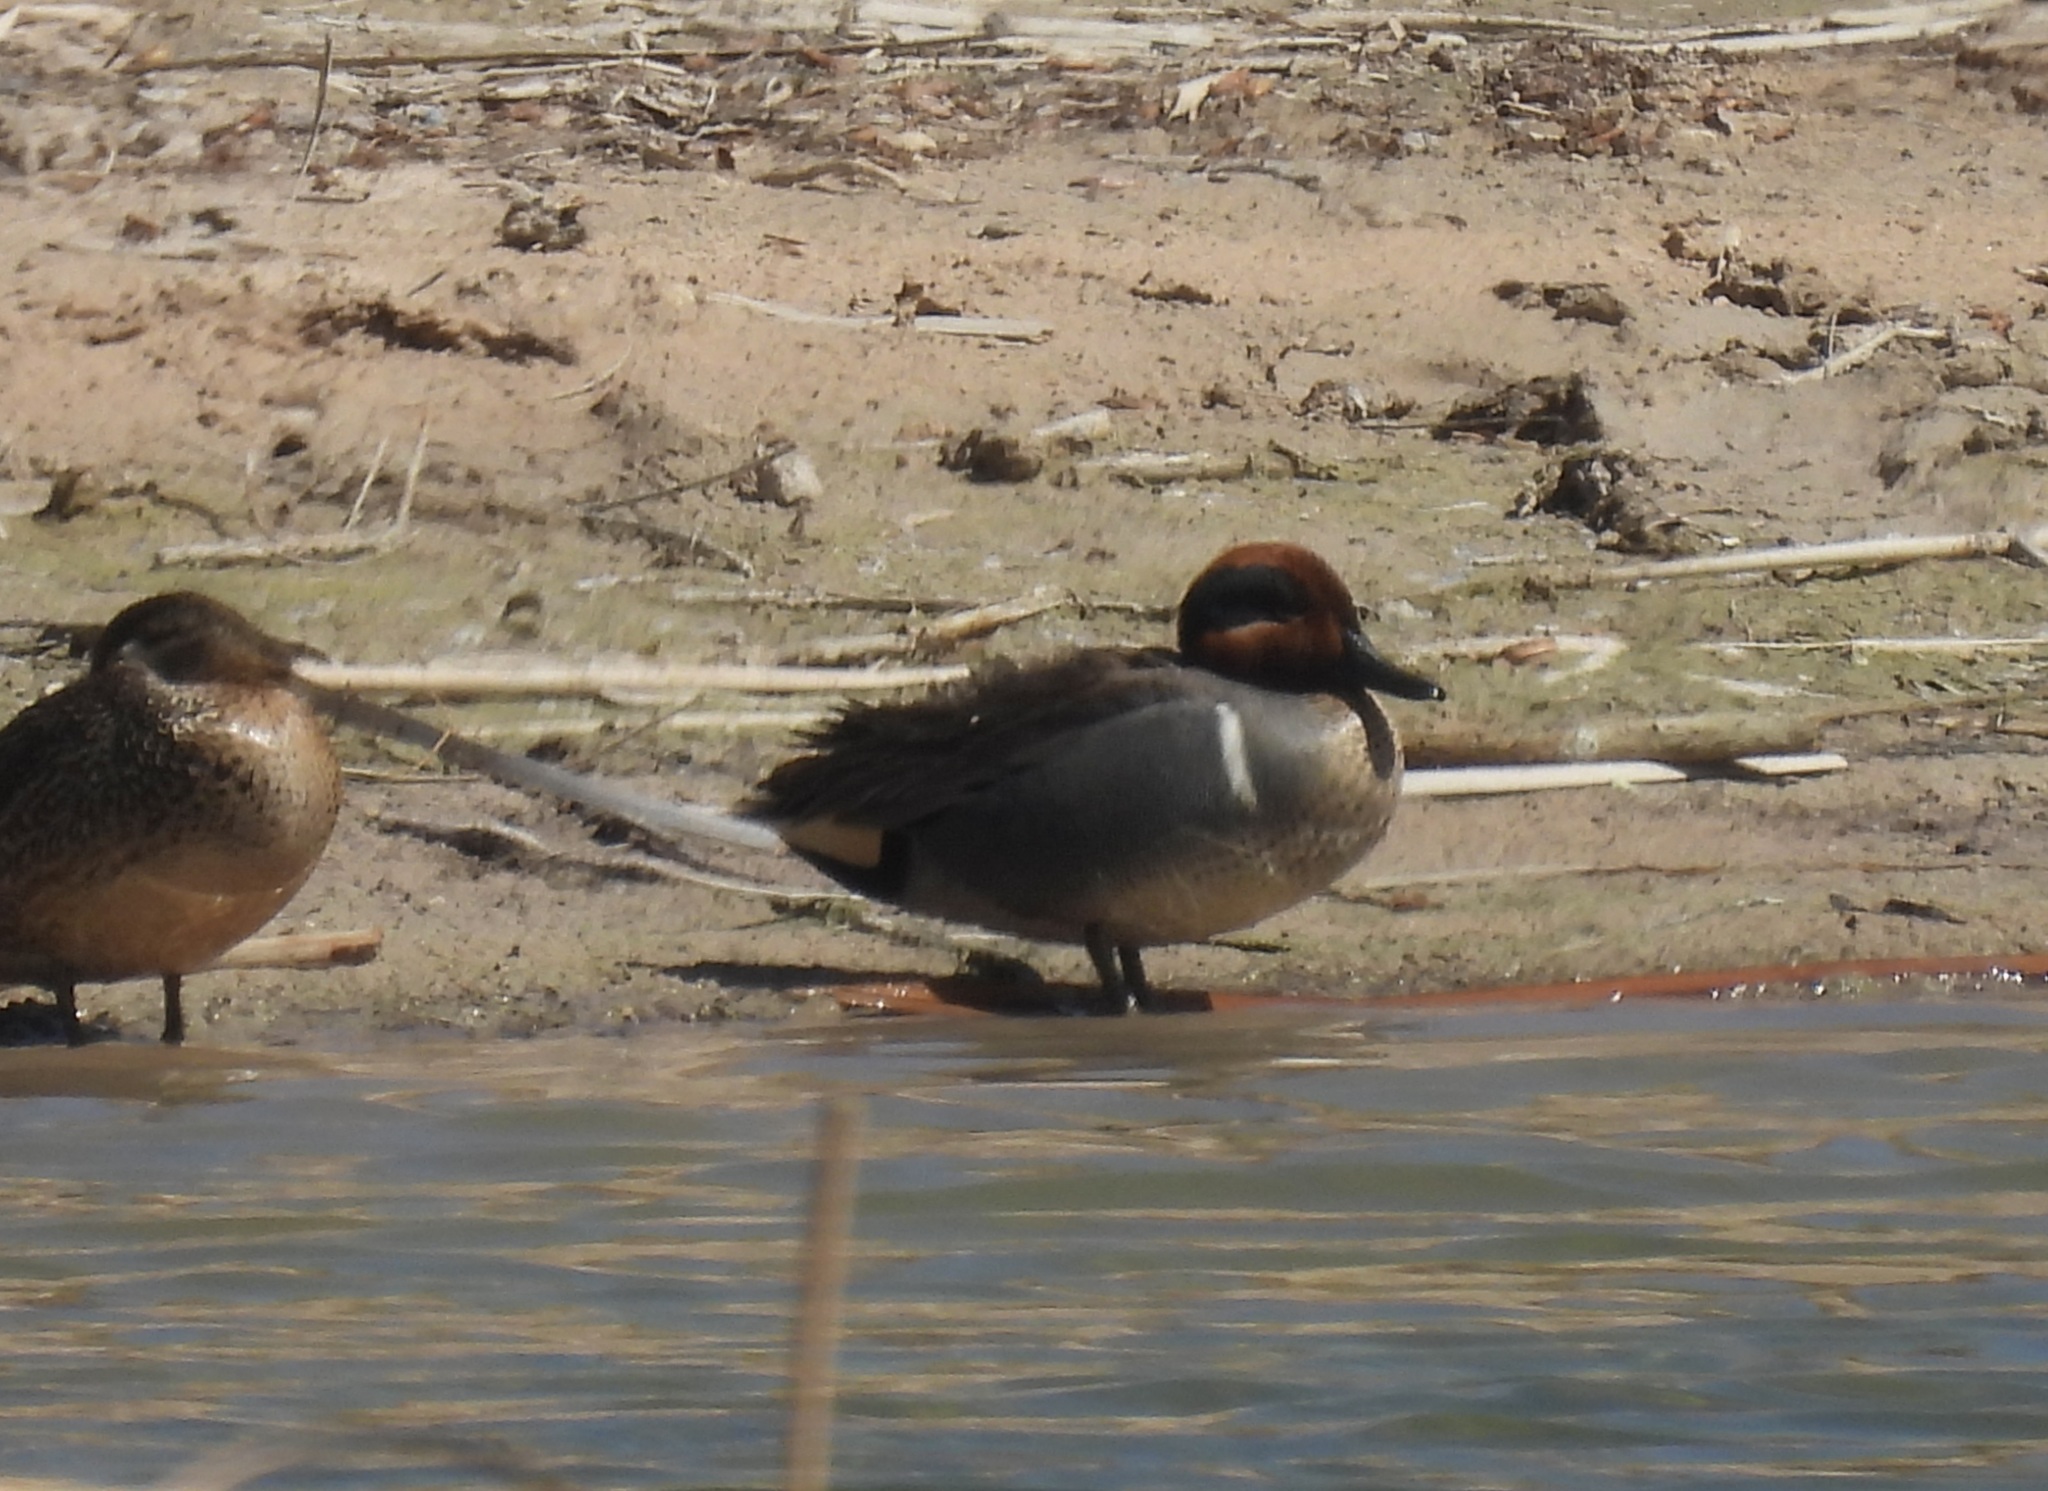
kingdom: Animalia
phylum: Chordata
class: Aves
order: Anseriformes
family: Anatidae
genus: Anas
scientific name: Anas crecca
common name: Eurasian teal
